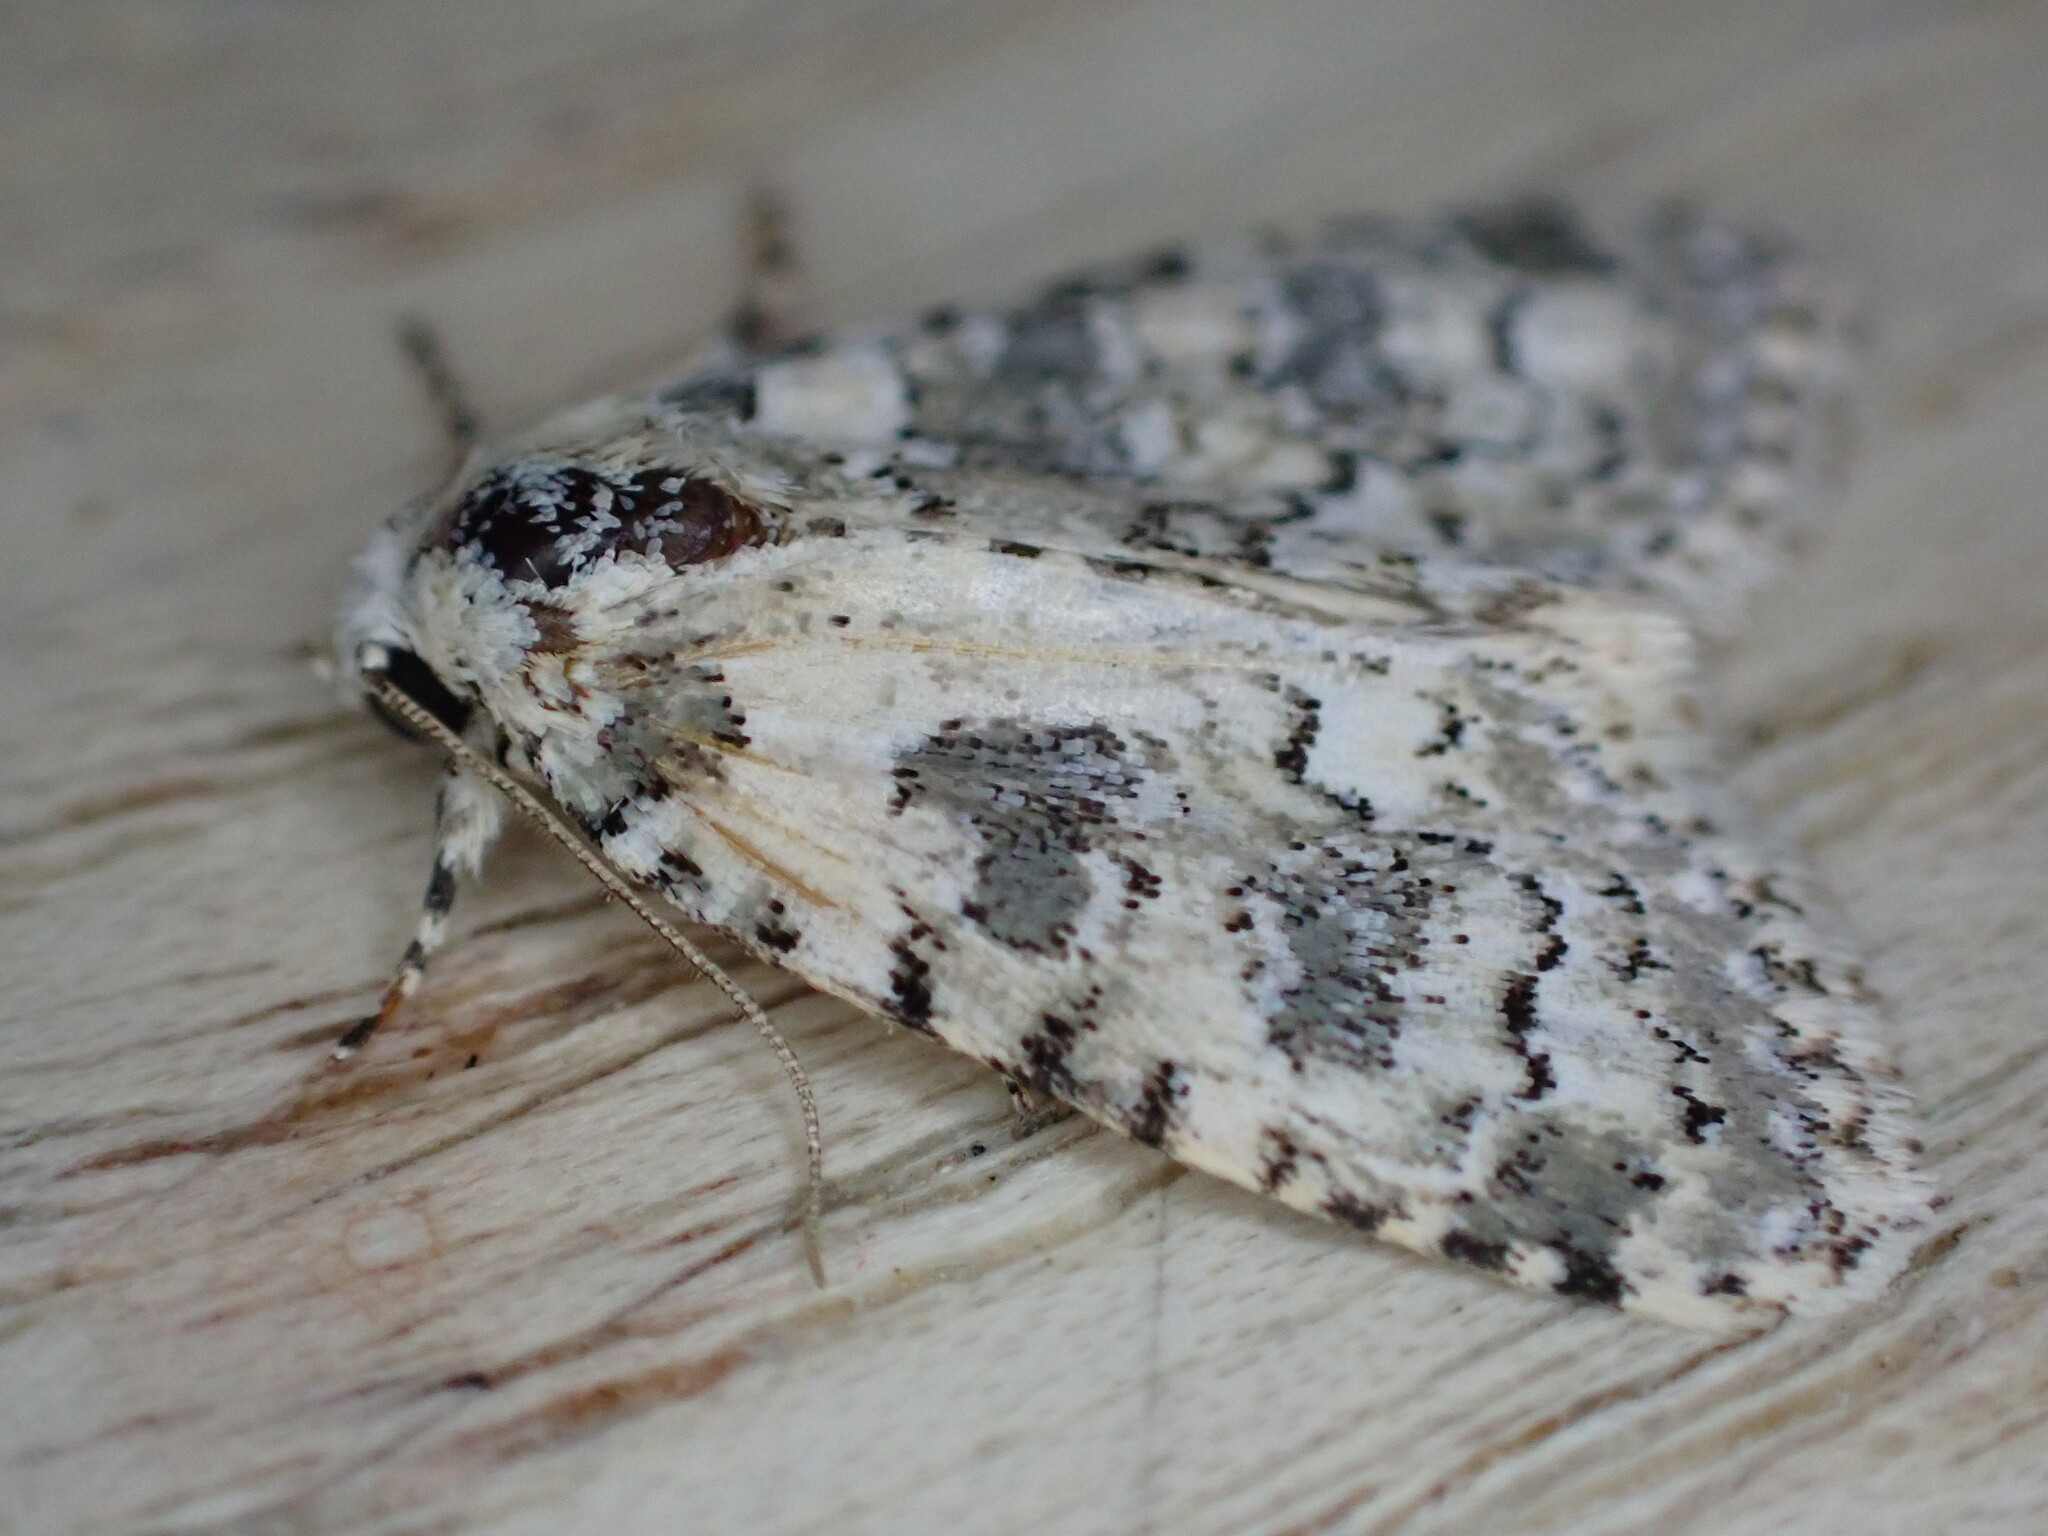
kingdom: Animalia
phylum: Arthropoda
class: Insecta
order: Lepidoptera
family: Noctuidae
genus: Bryophila
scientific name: Bryophila domestica
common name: Marbled beauty
